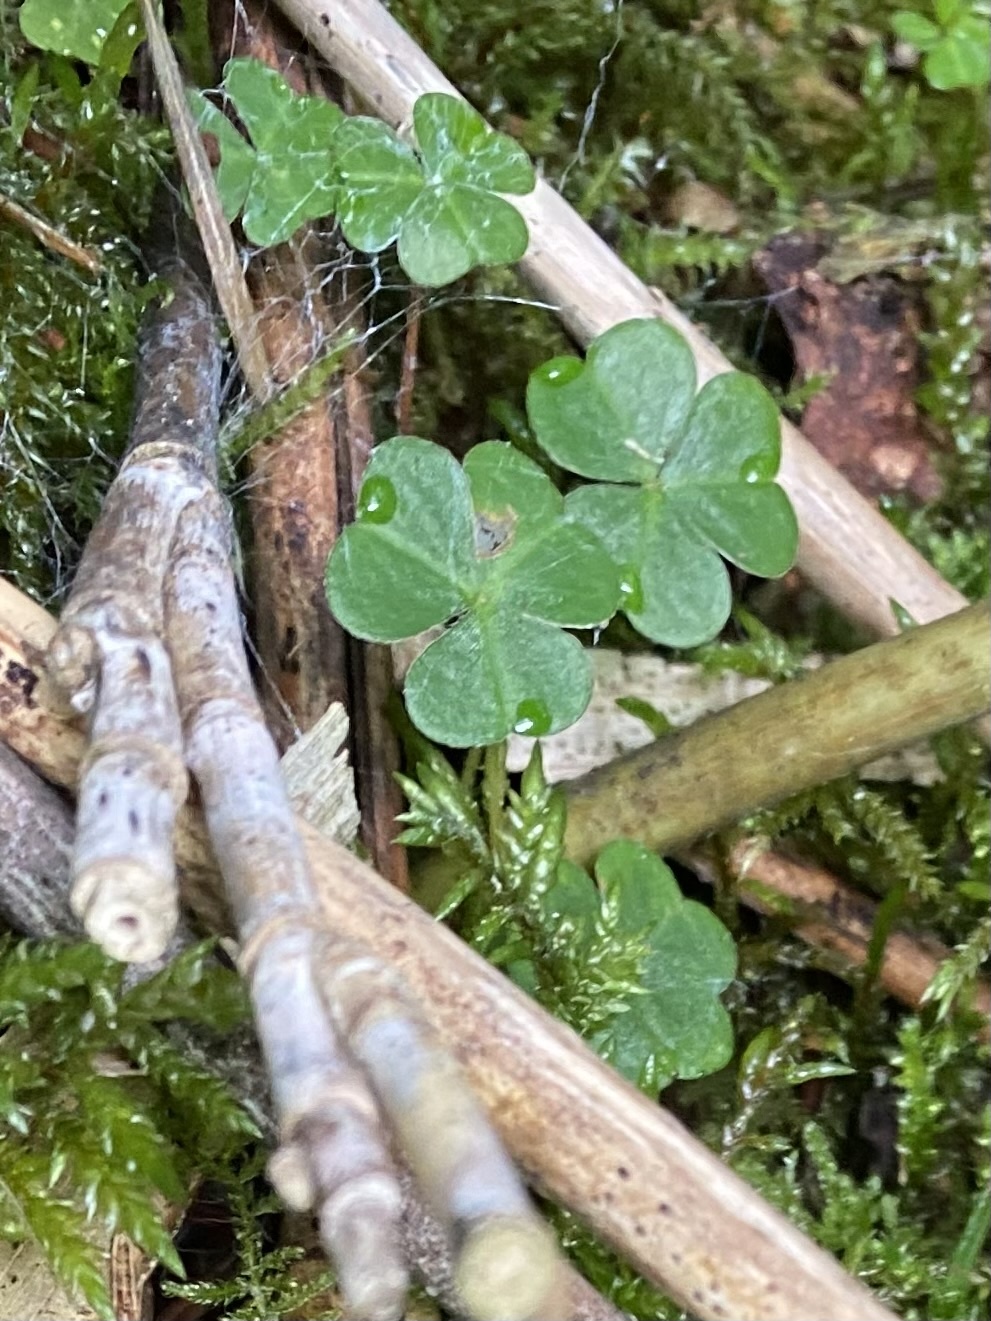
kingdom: Plantae
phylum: Tracheophyta
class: Magnoliopsida
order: Oxalidales
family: Oxalidaceae
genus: Oxalis
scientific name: Oxalis acetosella
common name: Wood-sorrel
